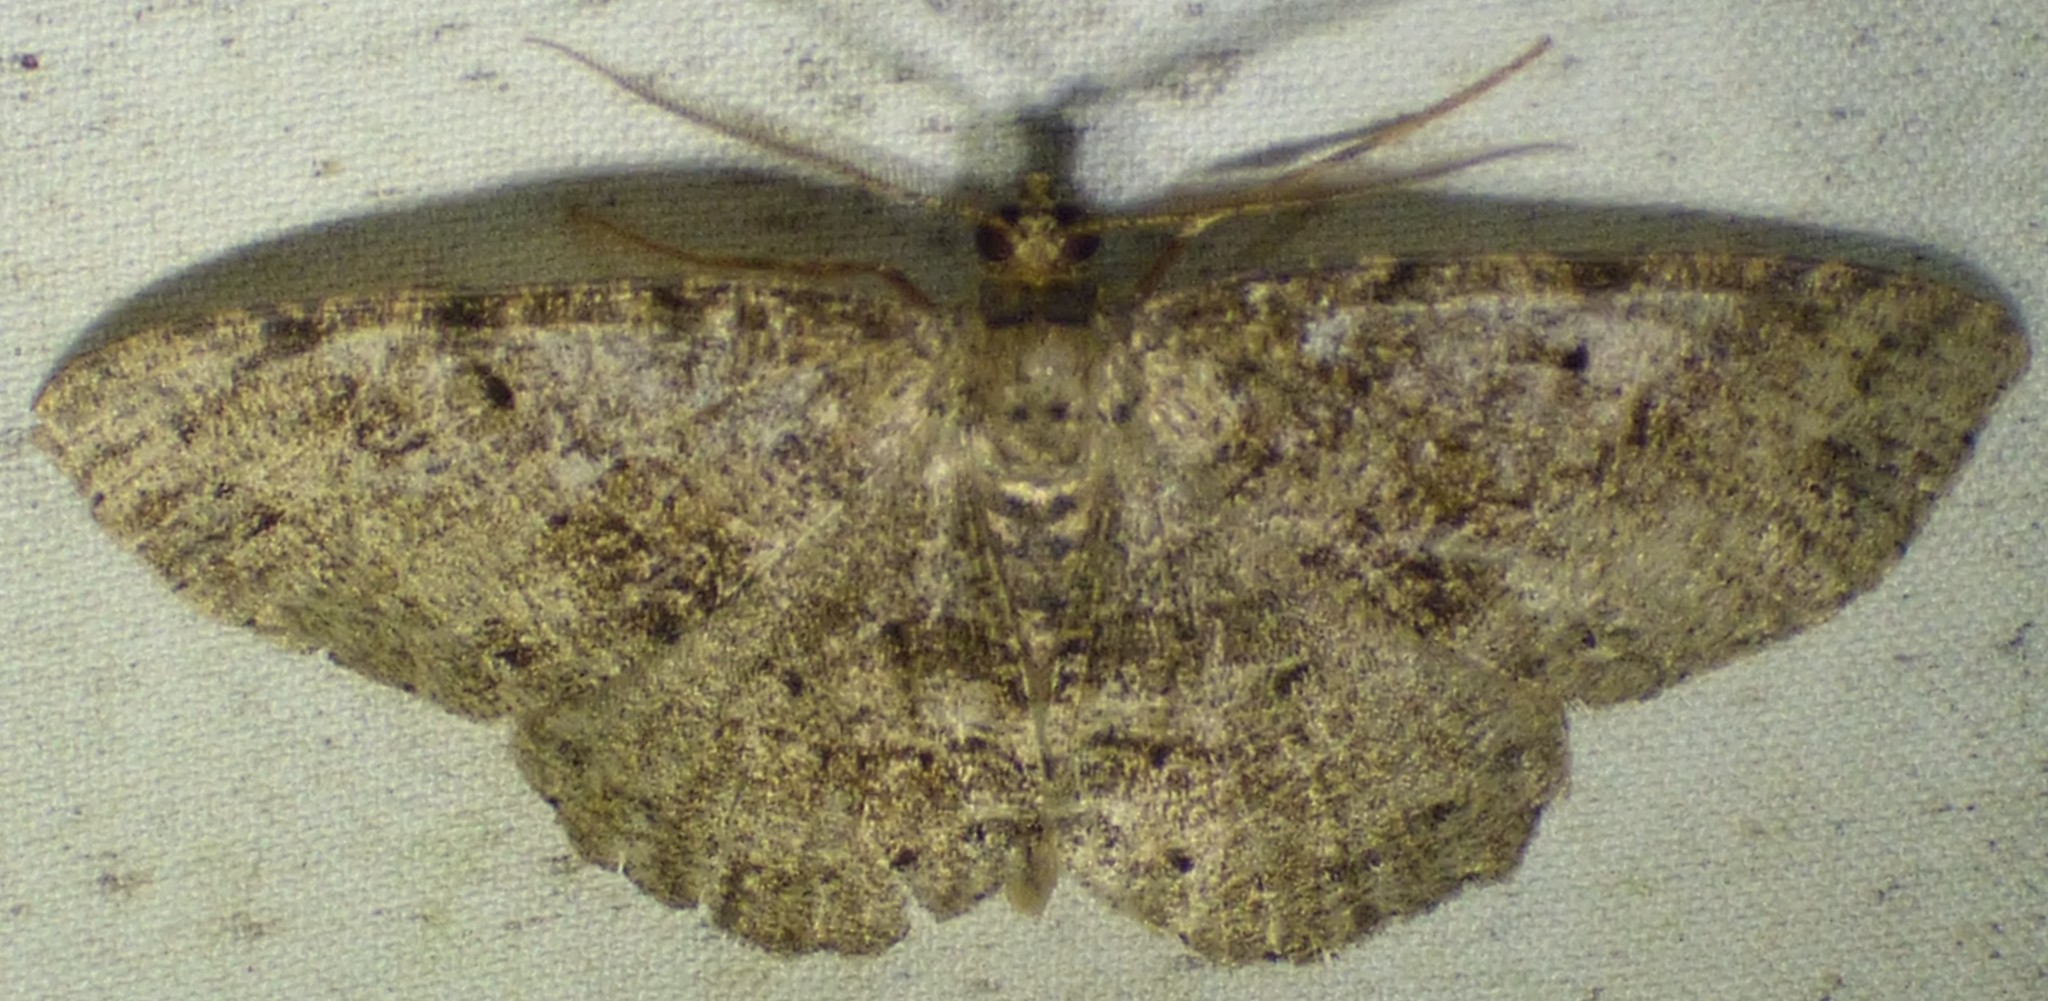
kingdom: Animalia
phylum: Arthropoda
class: Insecta
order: Lepidoptera
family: Geometridae
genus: Melanolophia
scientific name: Melanolophia canadaria
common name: Canadian melanolophia
